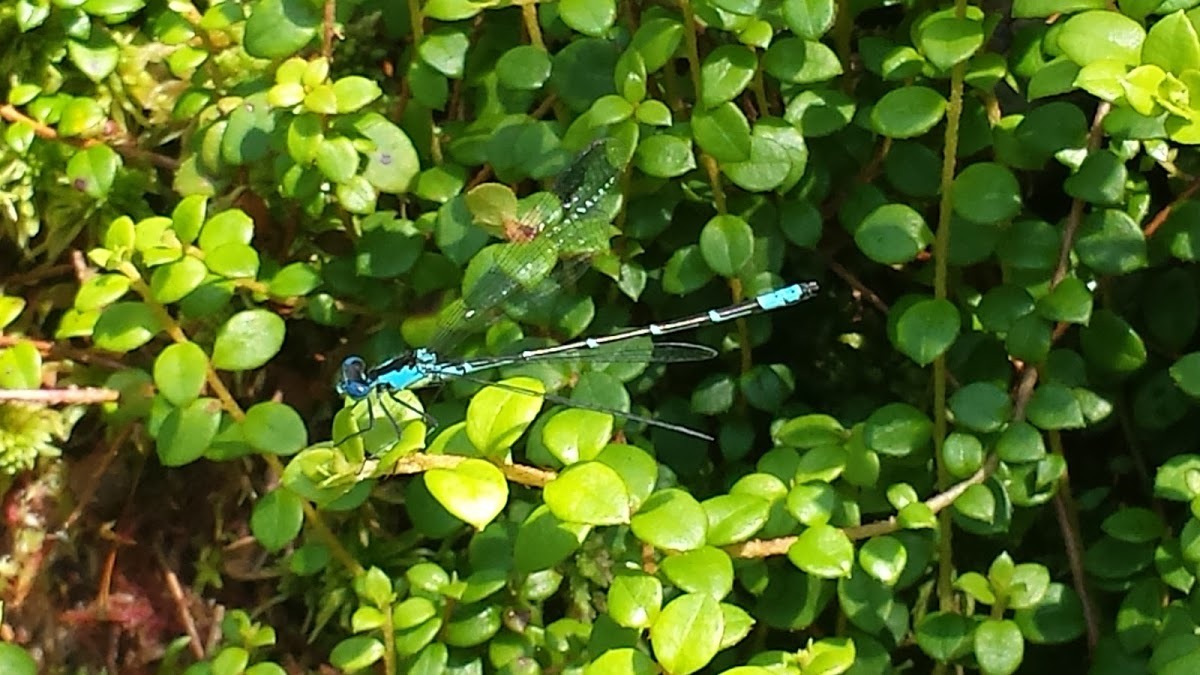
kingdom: Animalia
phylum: Arthropoda
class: Insecta
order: Odonata
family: Coenagrionidae
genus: Chromagrion
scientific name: Chromagrion conditum
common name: Aurora damsel
